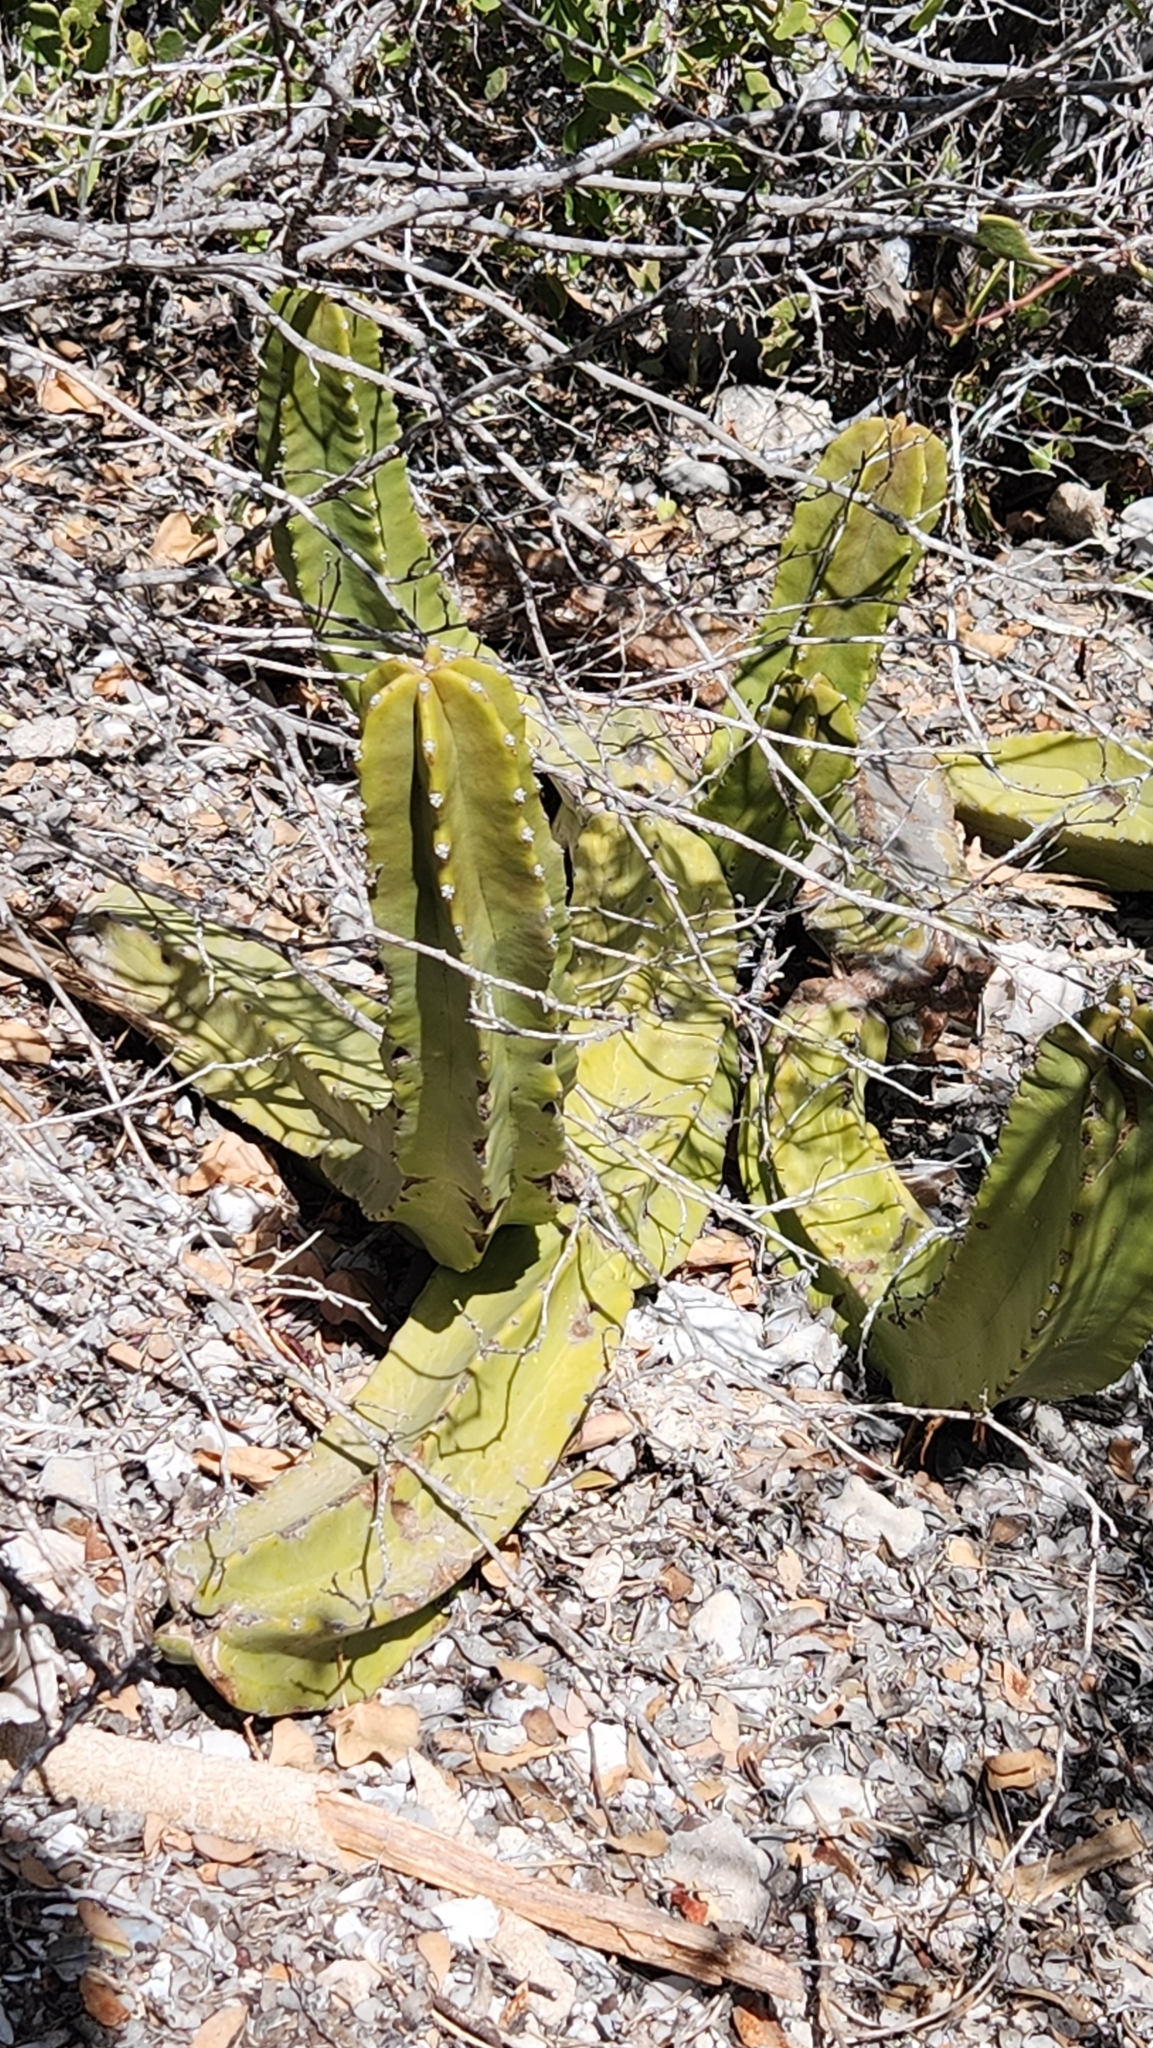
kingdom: Plantae
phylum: Tracheophyta
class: Magnoliopsida
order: Caryophyllales
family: Cactaceae
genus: Pachycereus
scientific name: Pachycereus schottii
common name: Senita cactus
